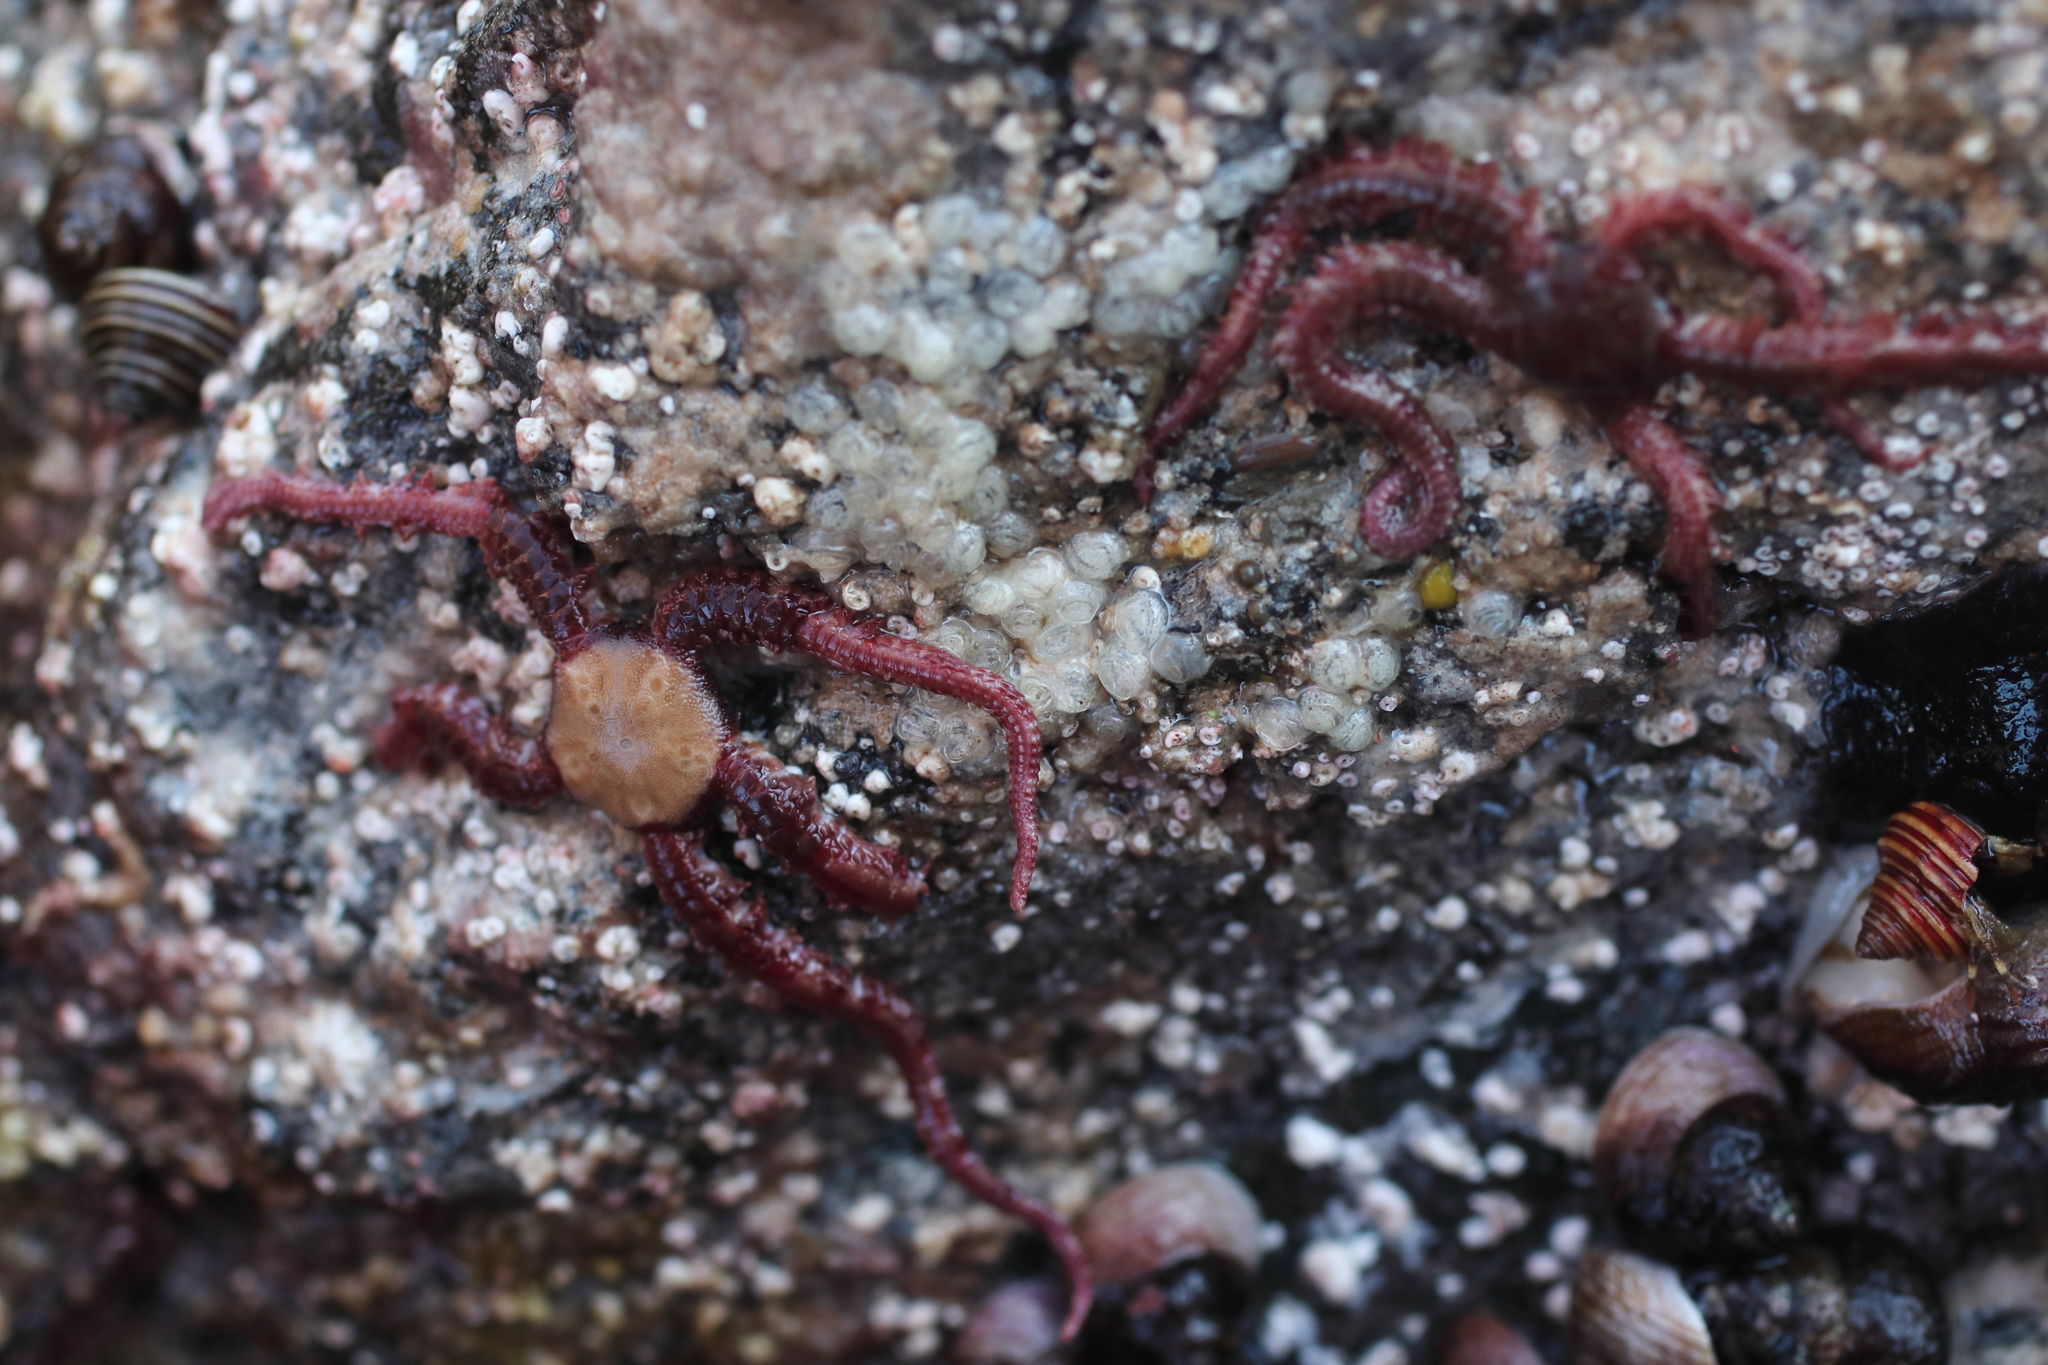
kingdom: Animalia
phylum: Echinodermata
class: Ophiuroidea
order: Amphilepidida
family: Ophiopholidae
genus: Ophiopholis
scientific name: Ophiopholis kennerlyi
